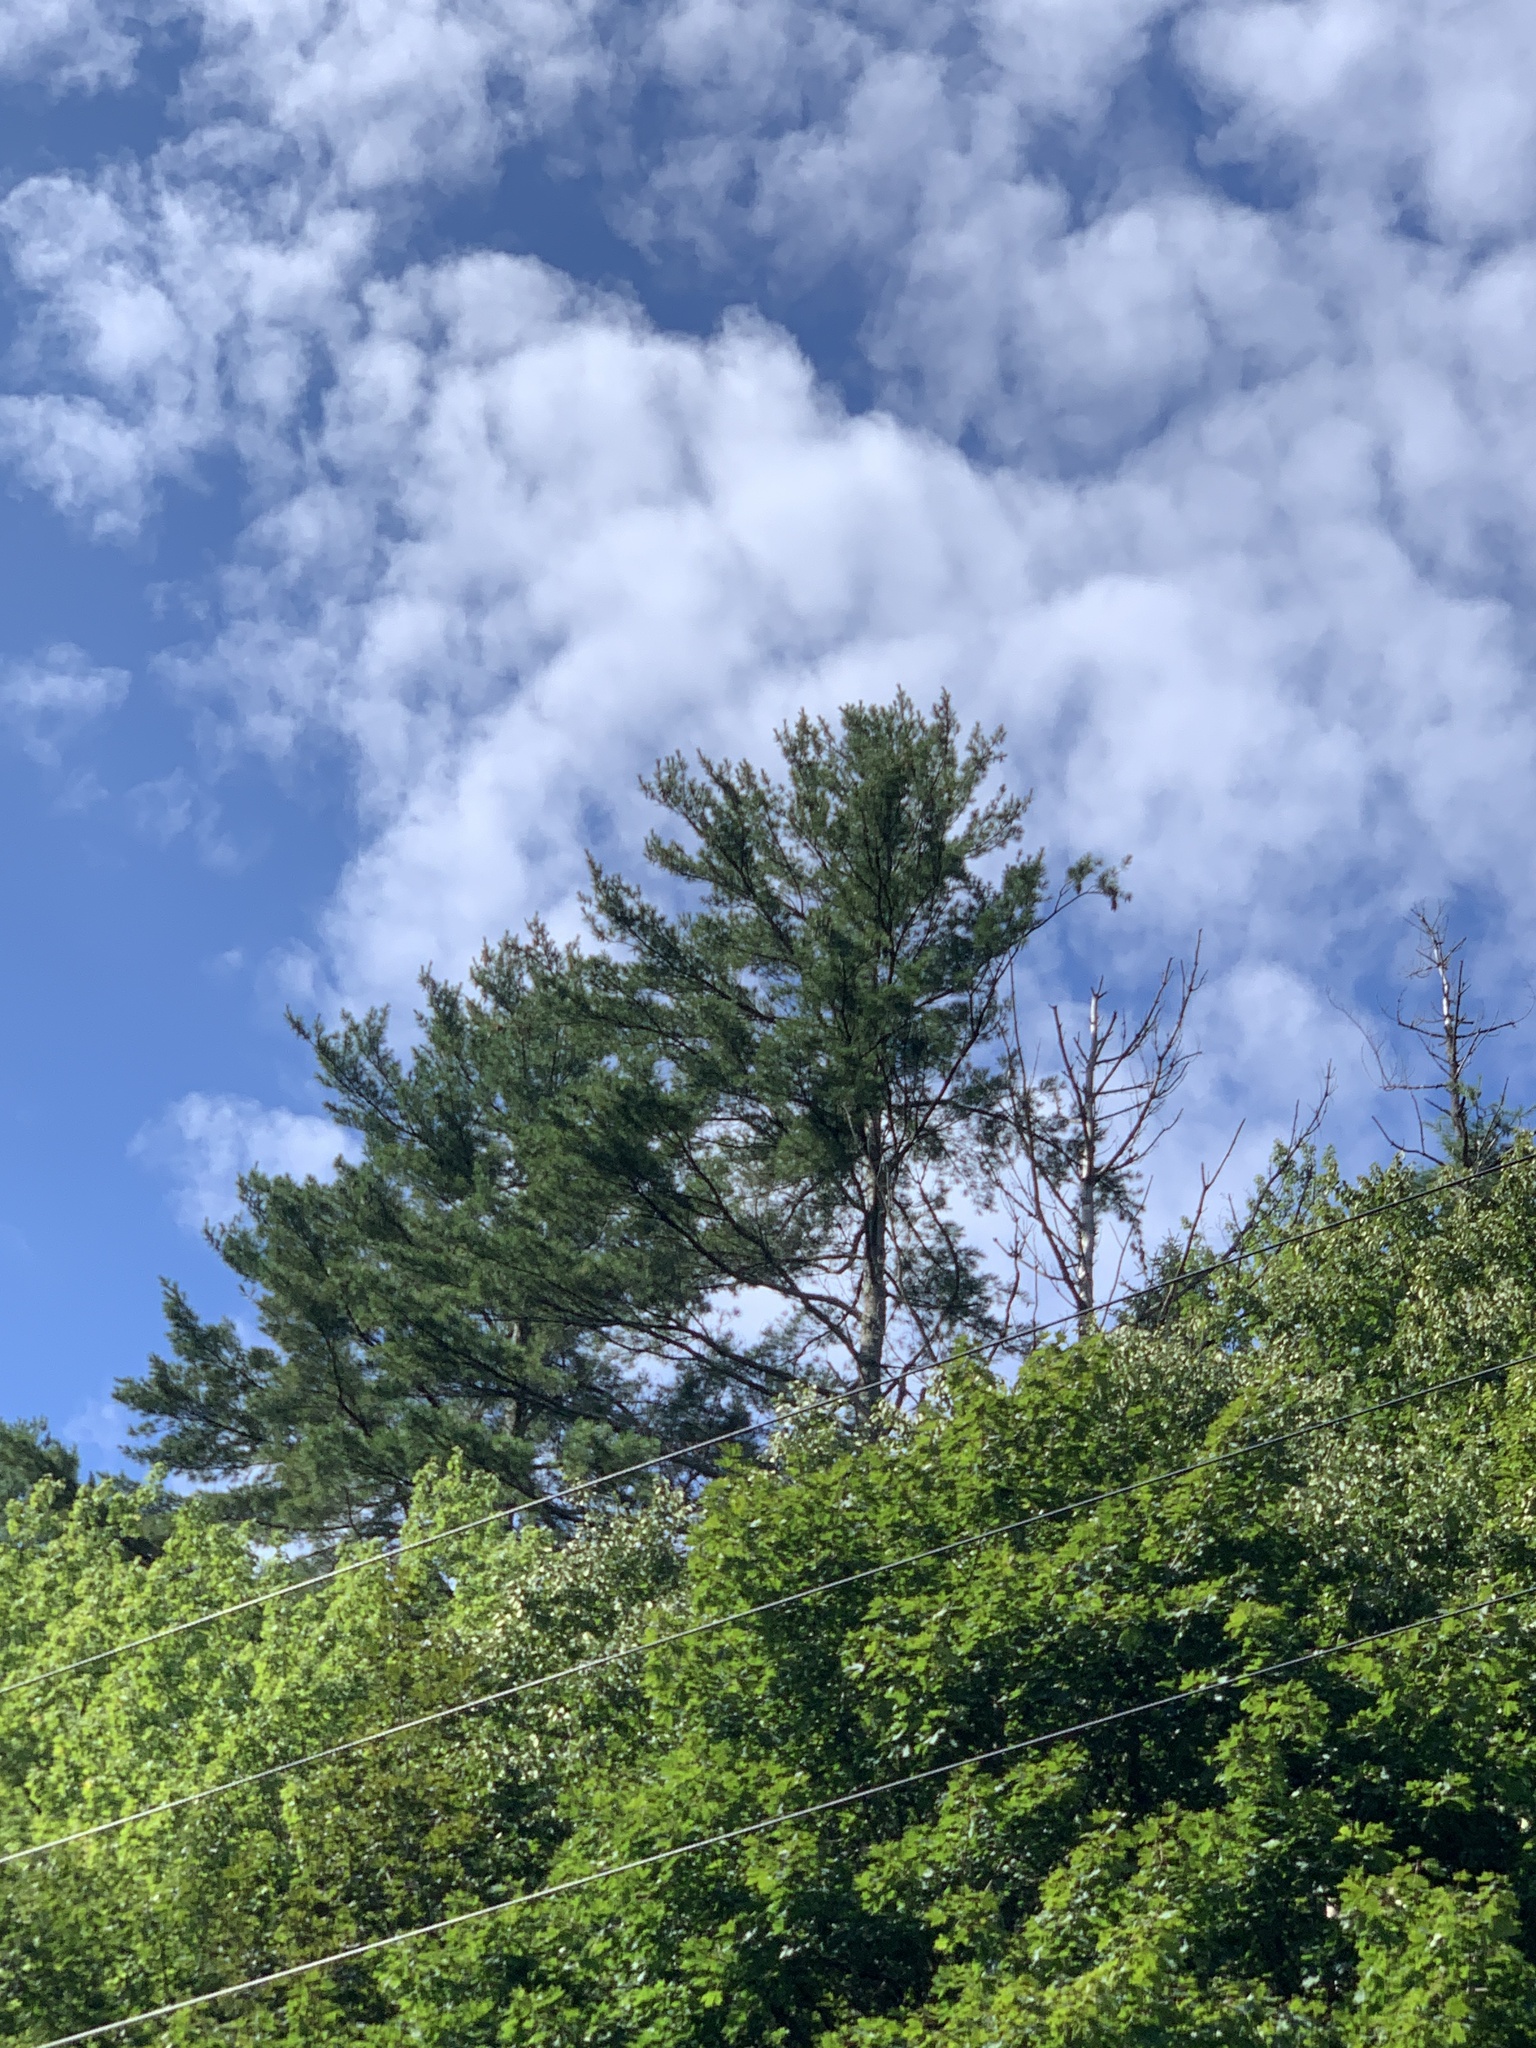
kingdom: Plantae
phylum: Tracheophyta
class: Pinopsida
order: Pinales
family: Pinaceae
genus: Pinus
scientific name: Pinus strobus
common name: Weymouth pine
